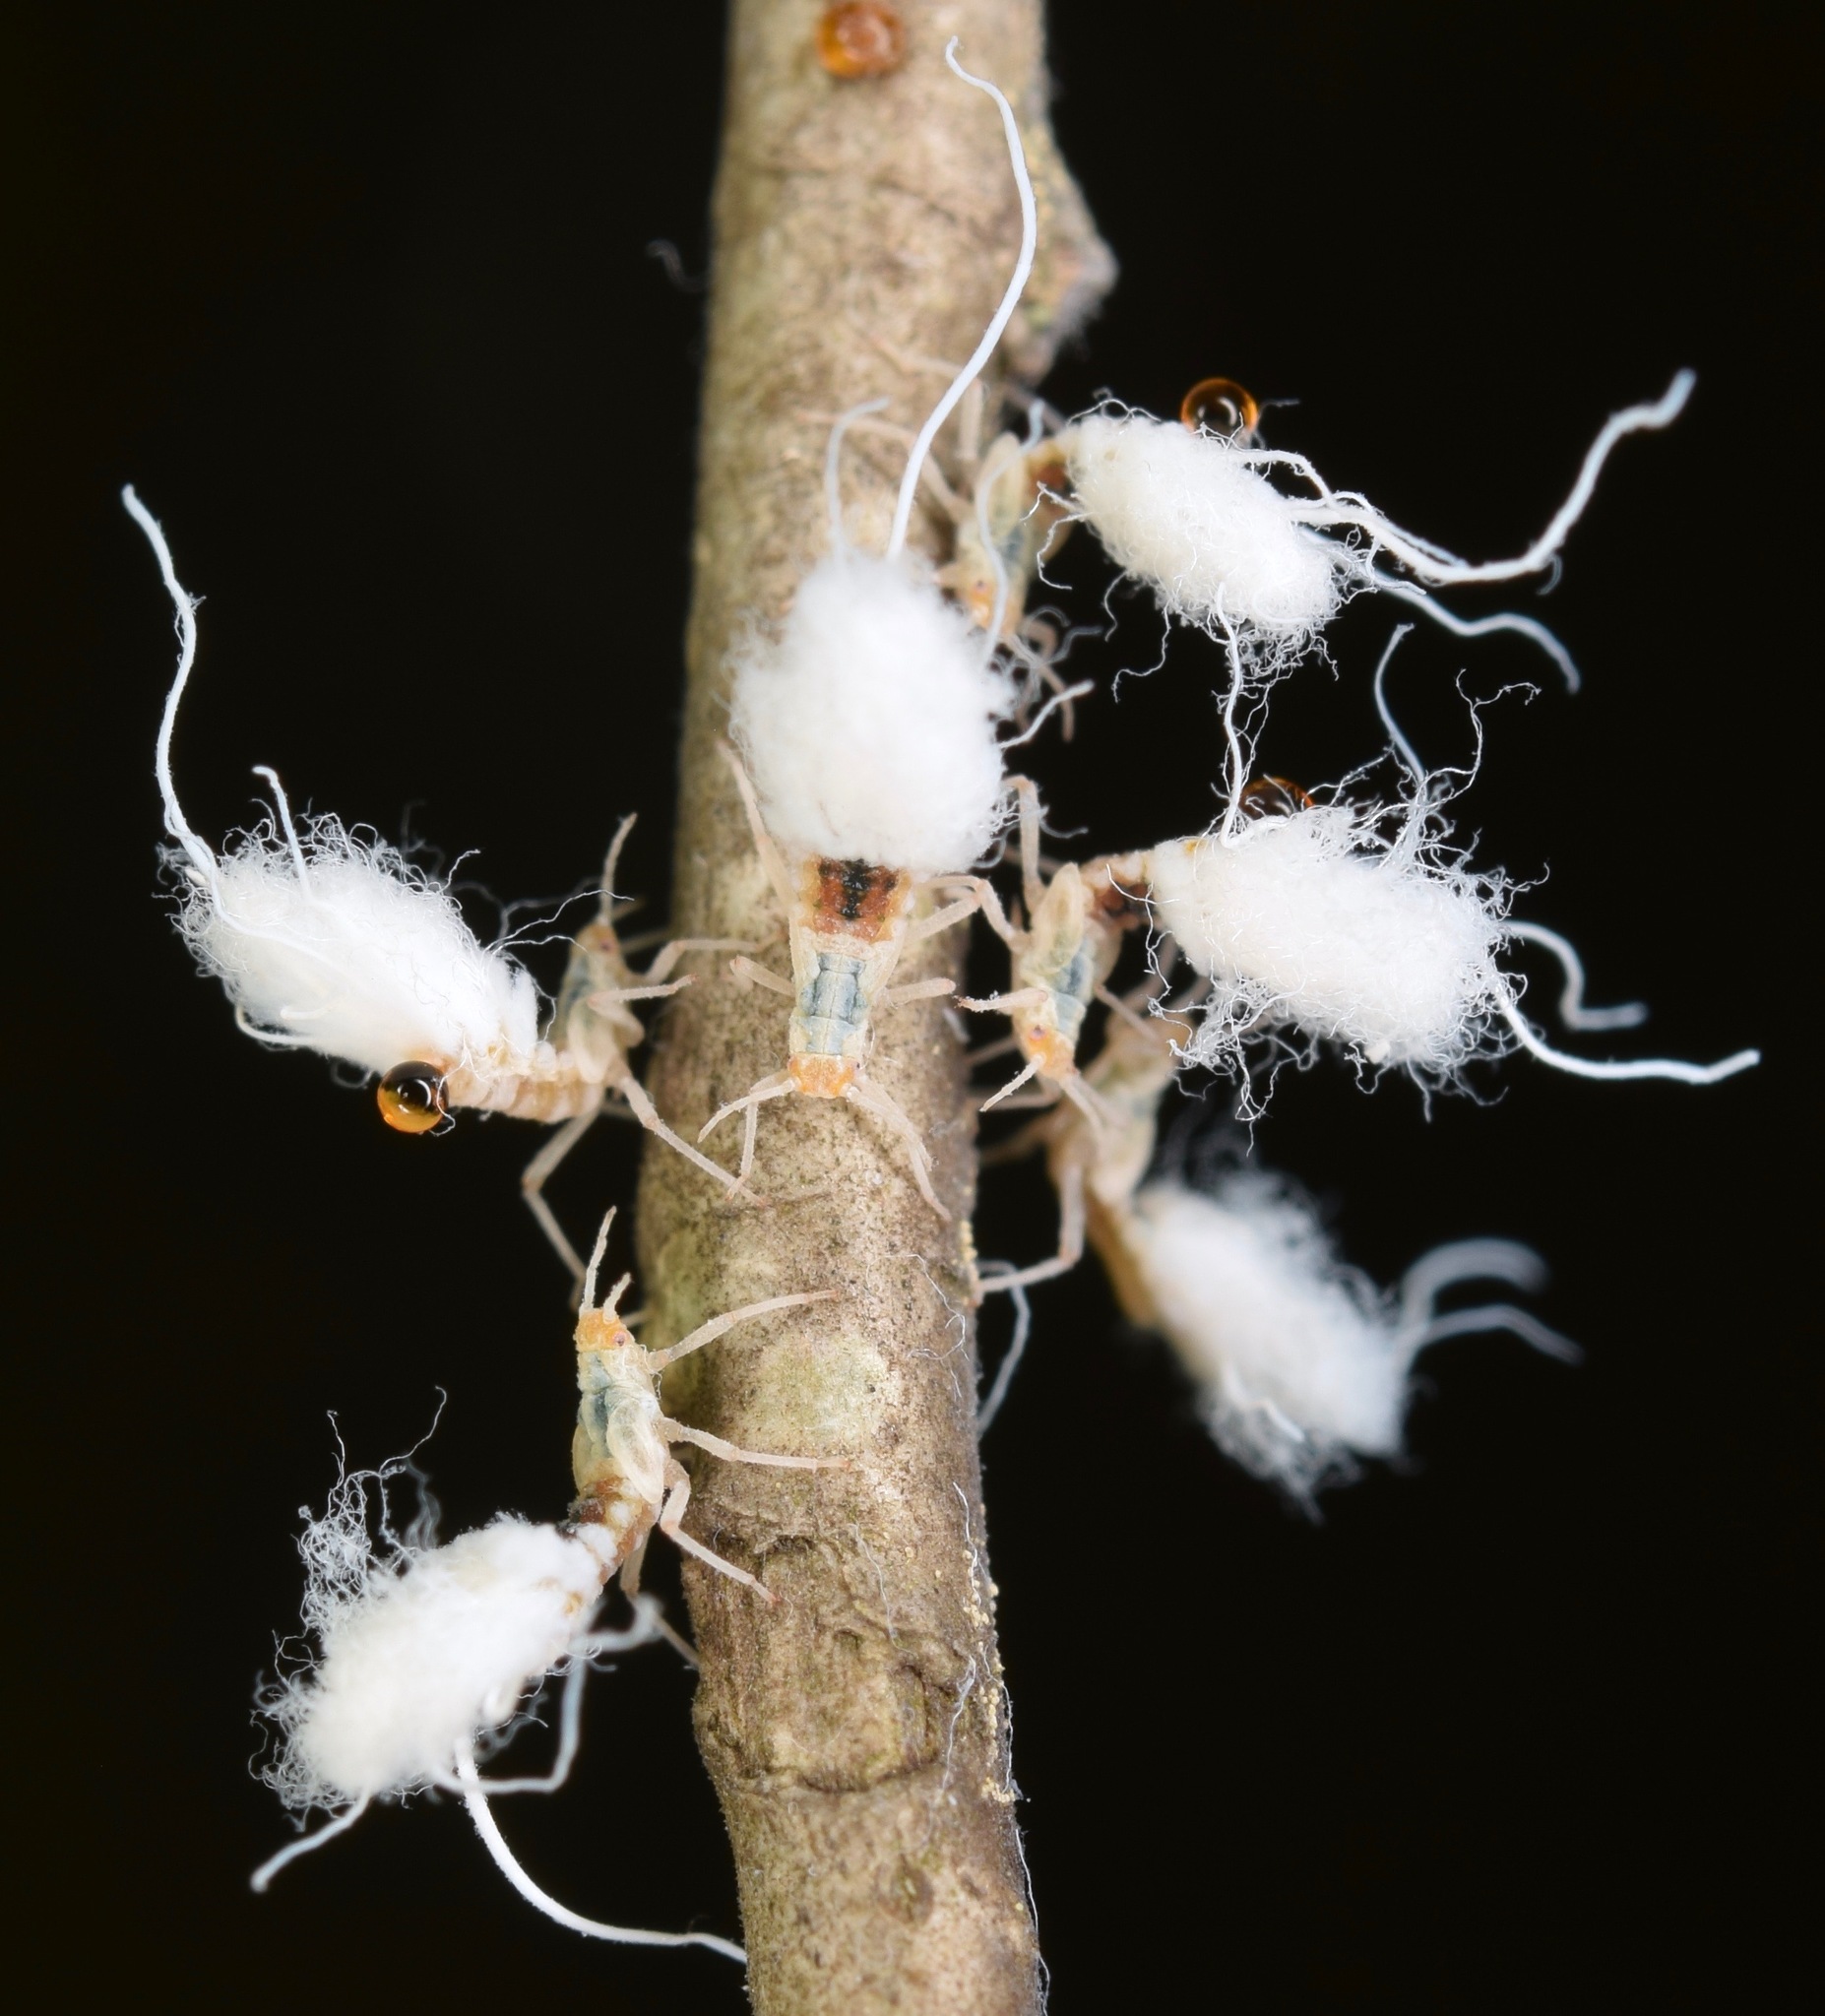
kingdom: Animalia
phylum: Arthropoda
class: Insecta
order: Hemiptera
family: Aphididae
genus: Grylloprociphilus
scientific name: Grylloprociphilus imbricator
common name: Beech blight aphid
